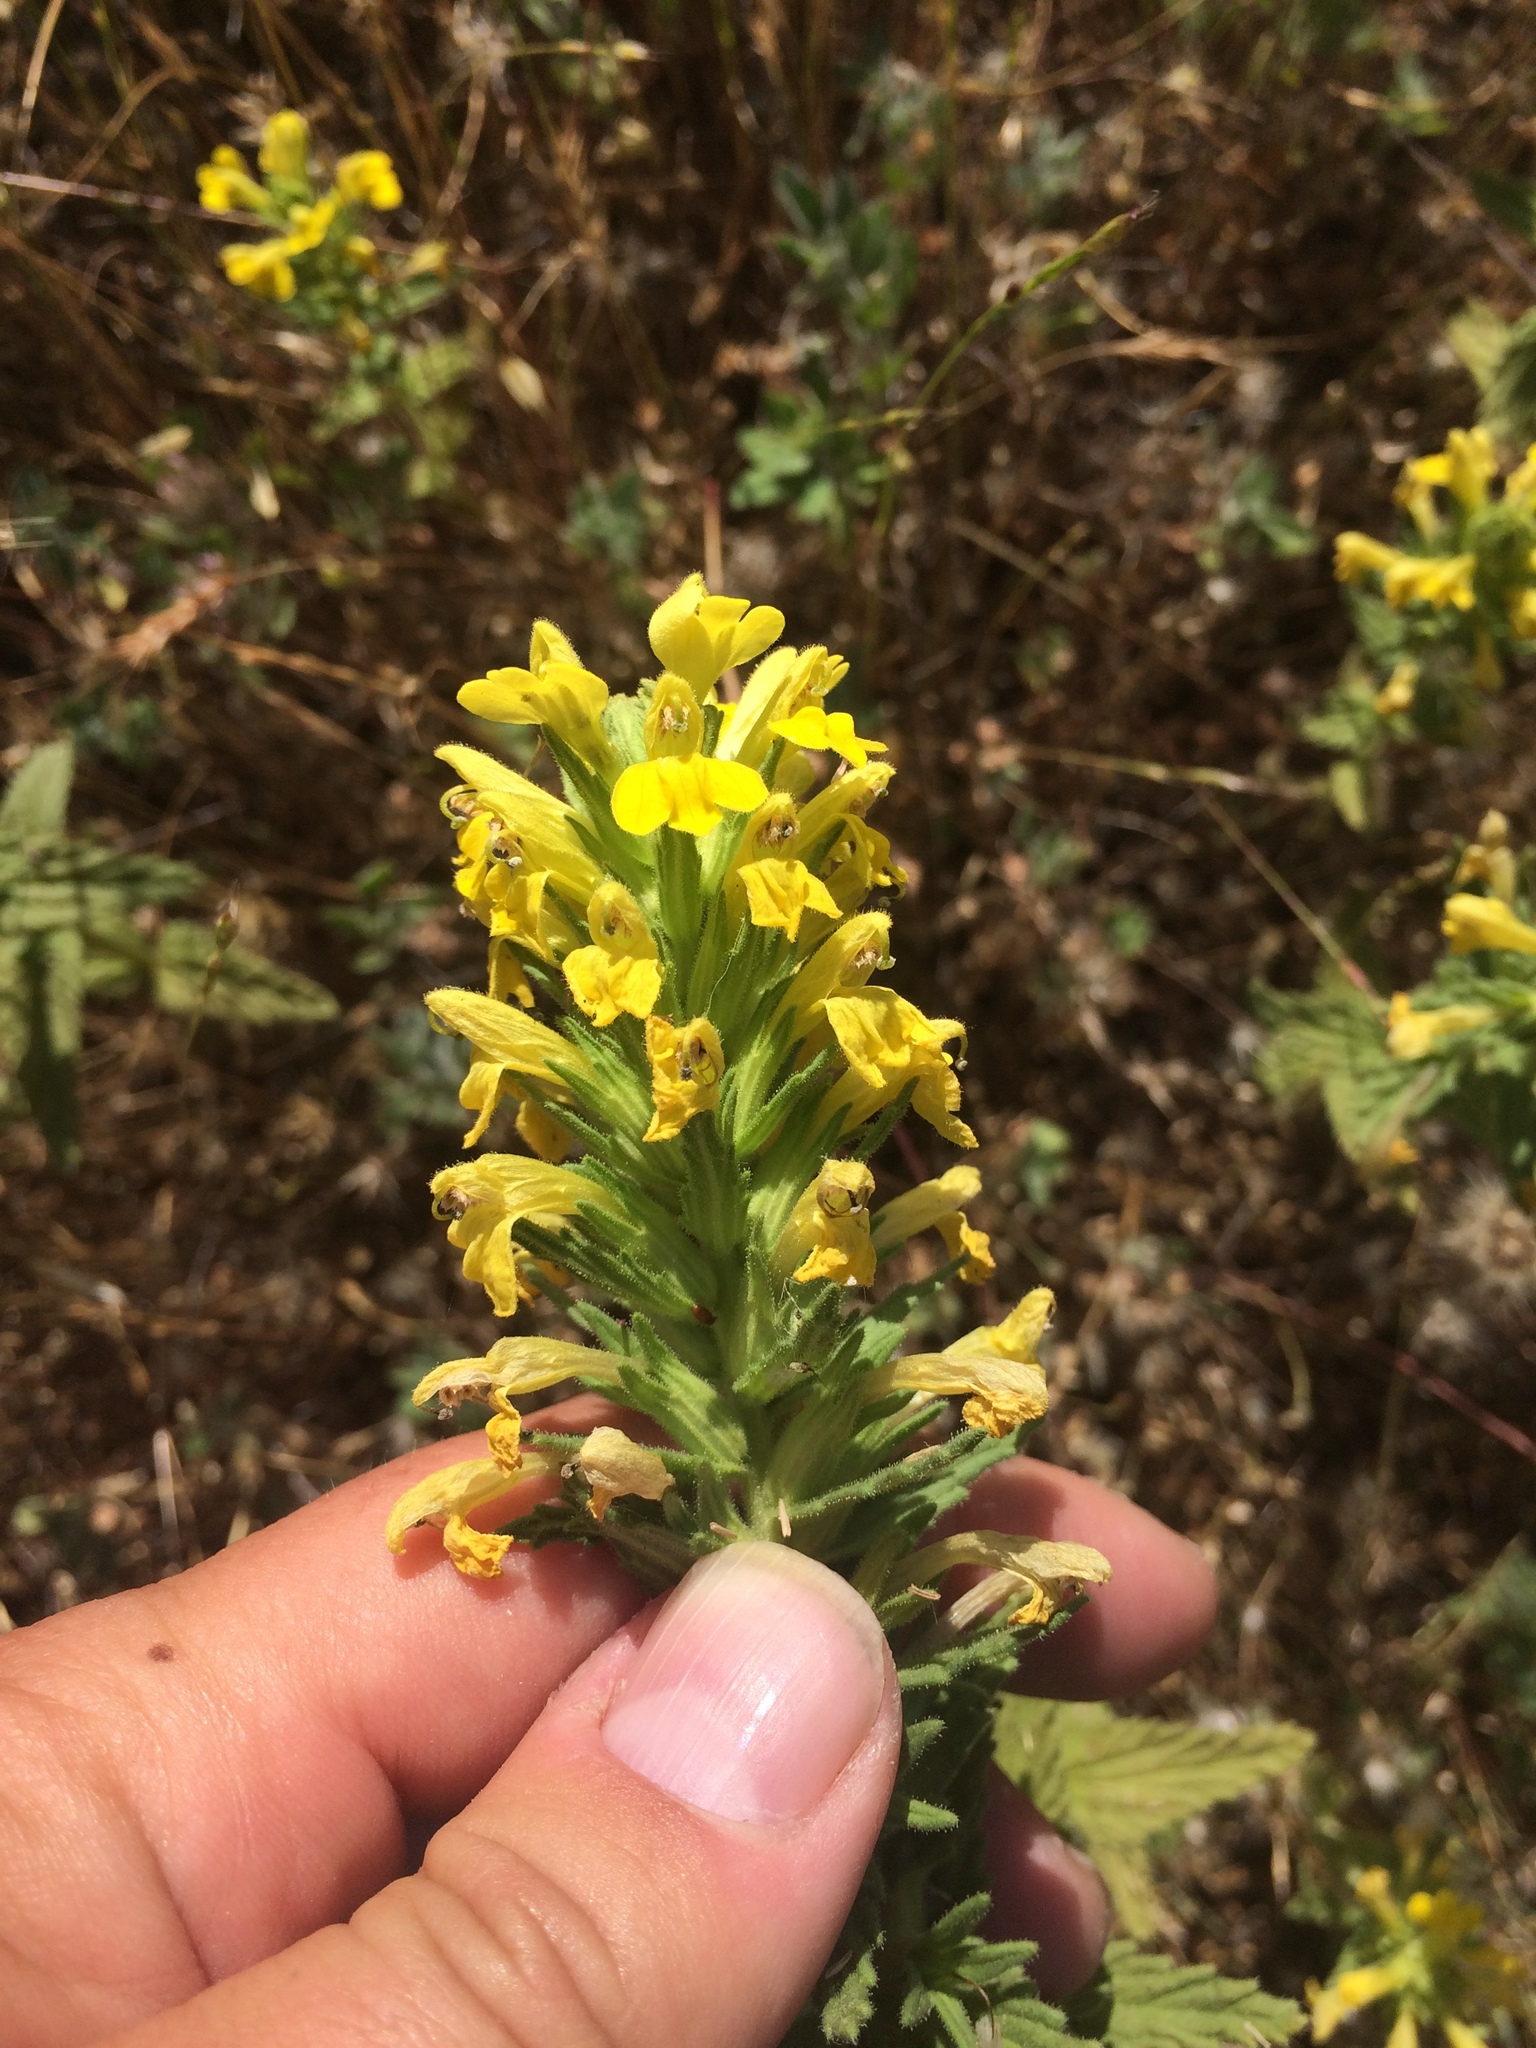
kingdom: Plantae
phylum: Tracheophyta
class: Magnoliopsida
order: Lamiales
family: Orobanchaceae
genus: Bellardia
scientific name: Bellardia viscosa
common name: Sticky parentucellia
